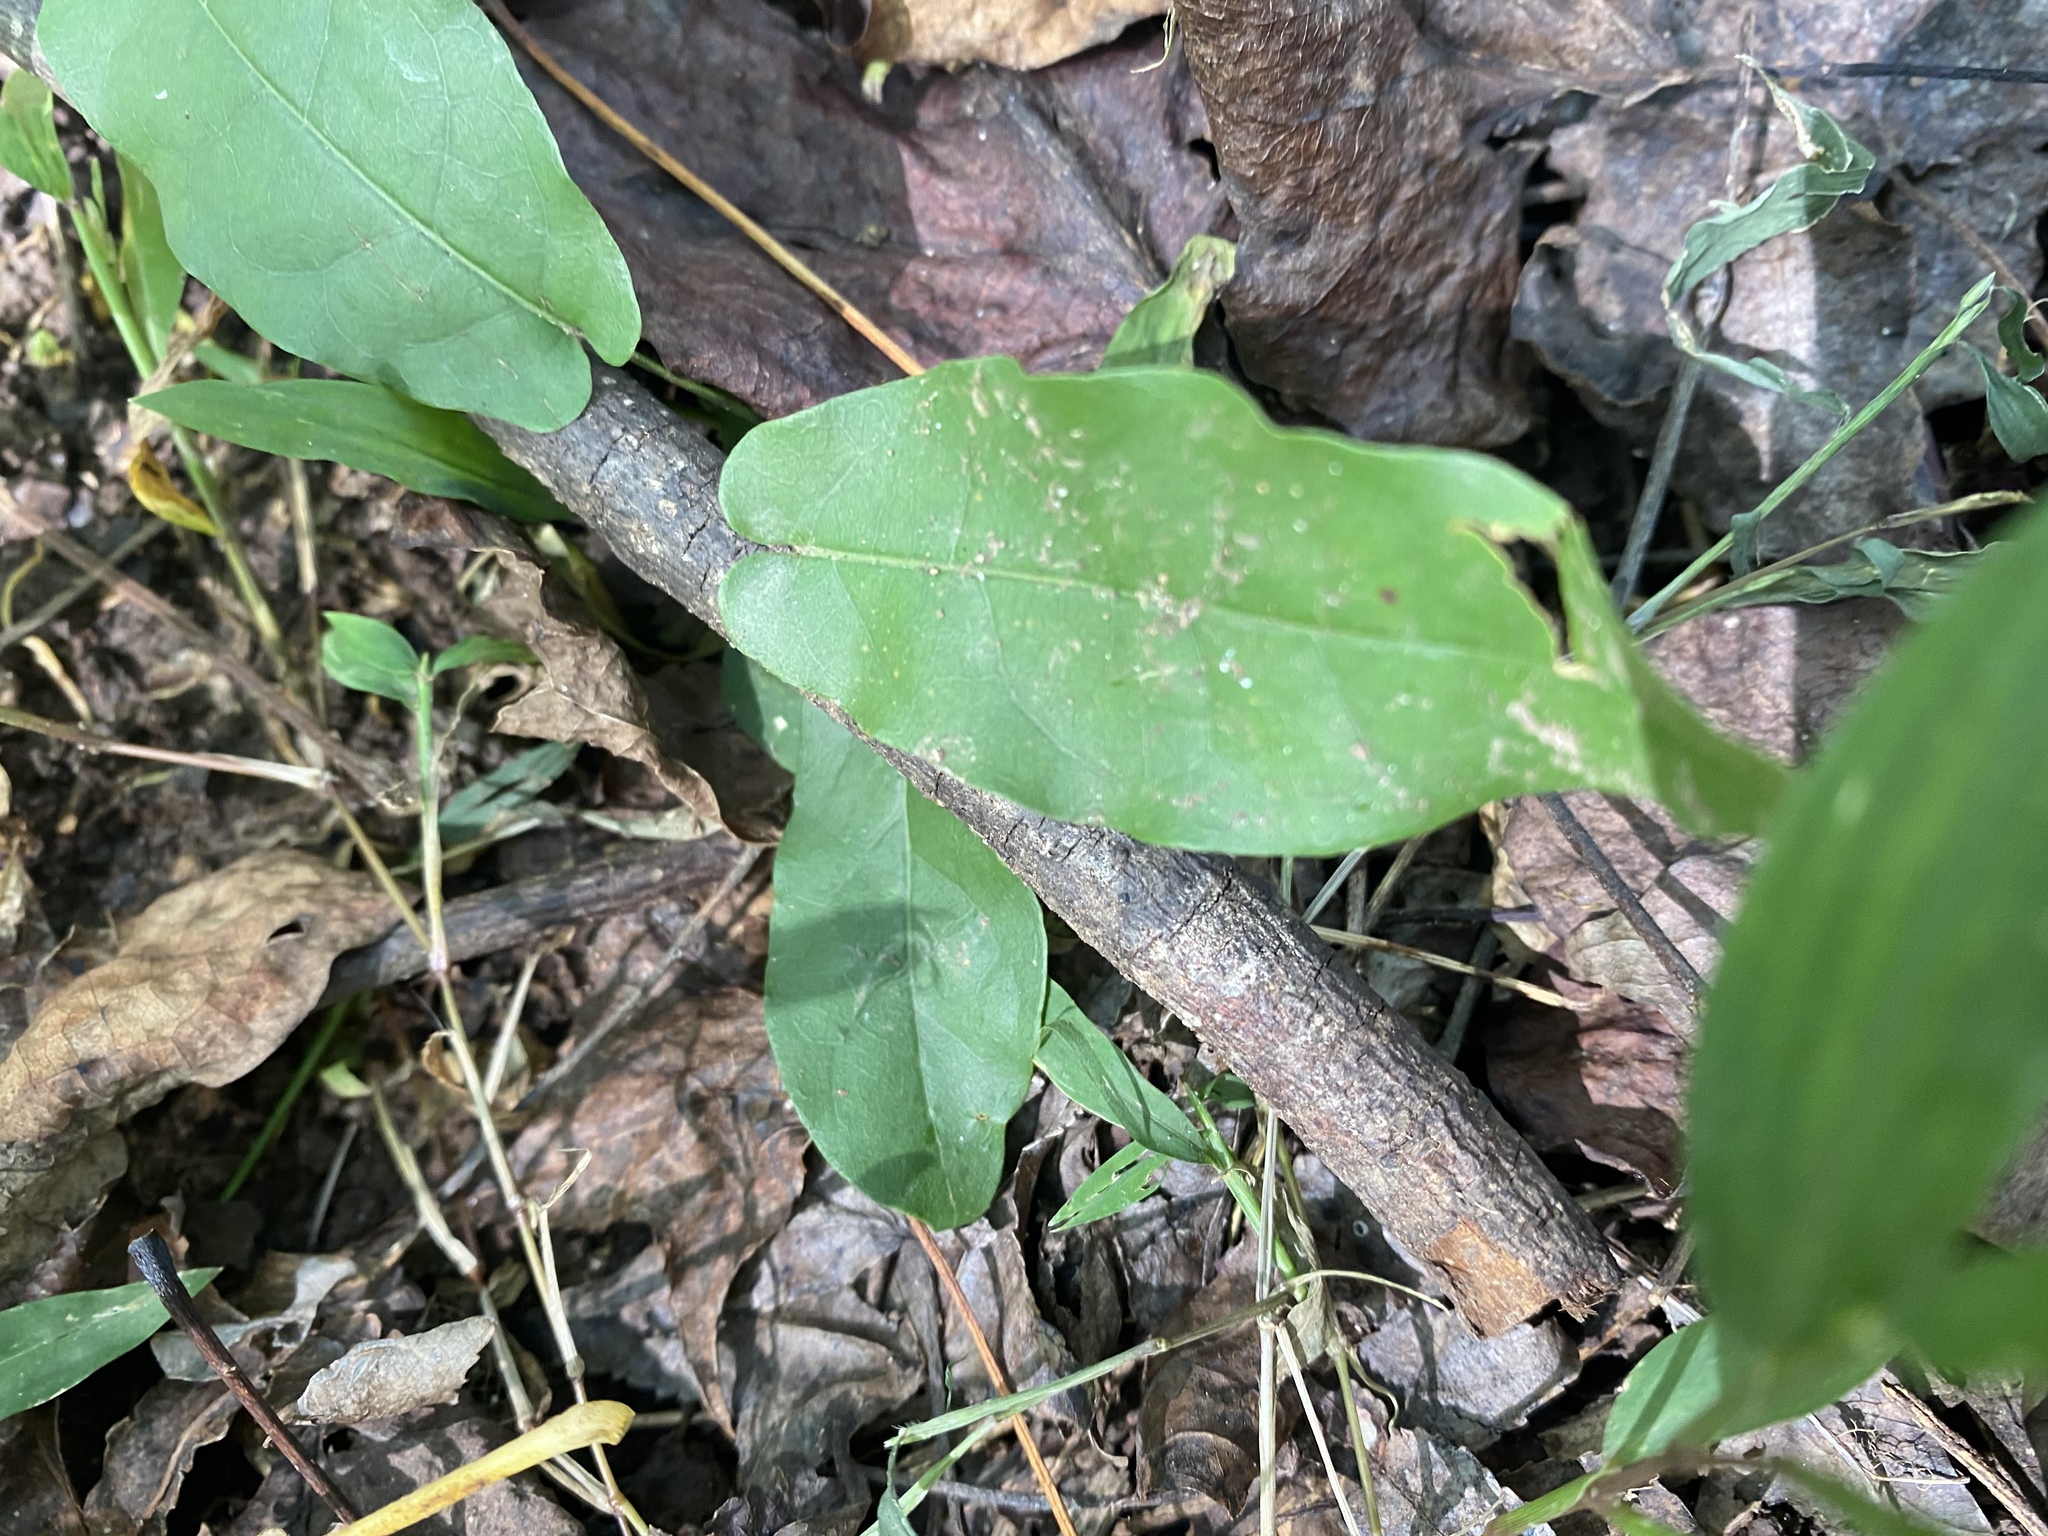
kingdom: Plantae
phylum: Tracheophyta
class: Magnoliopsida
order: Lamiales
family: Bignoniaceae
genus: Bignonia
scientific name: Bignonia capreolata
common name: Crossvine
